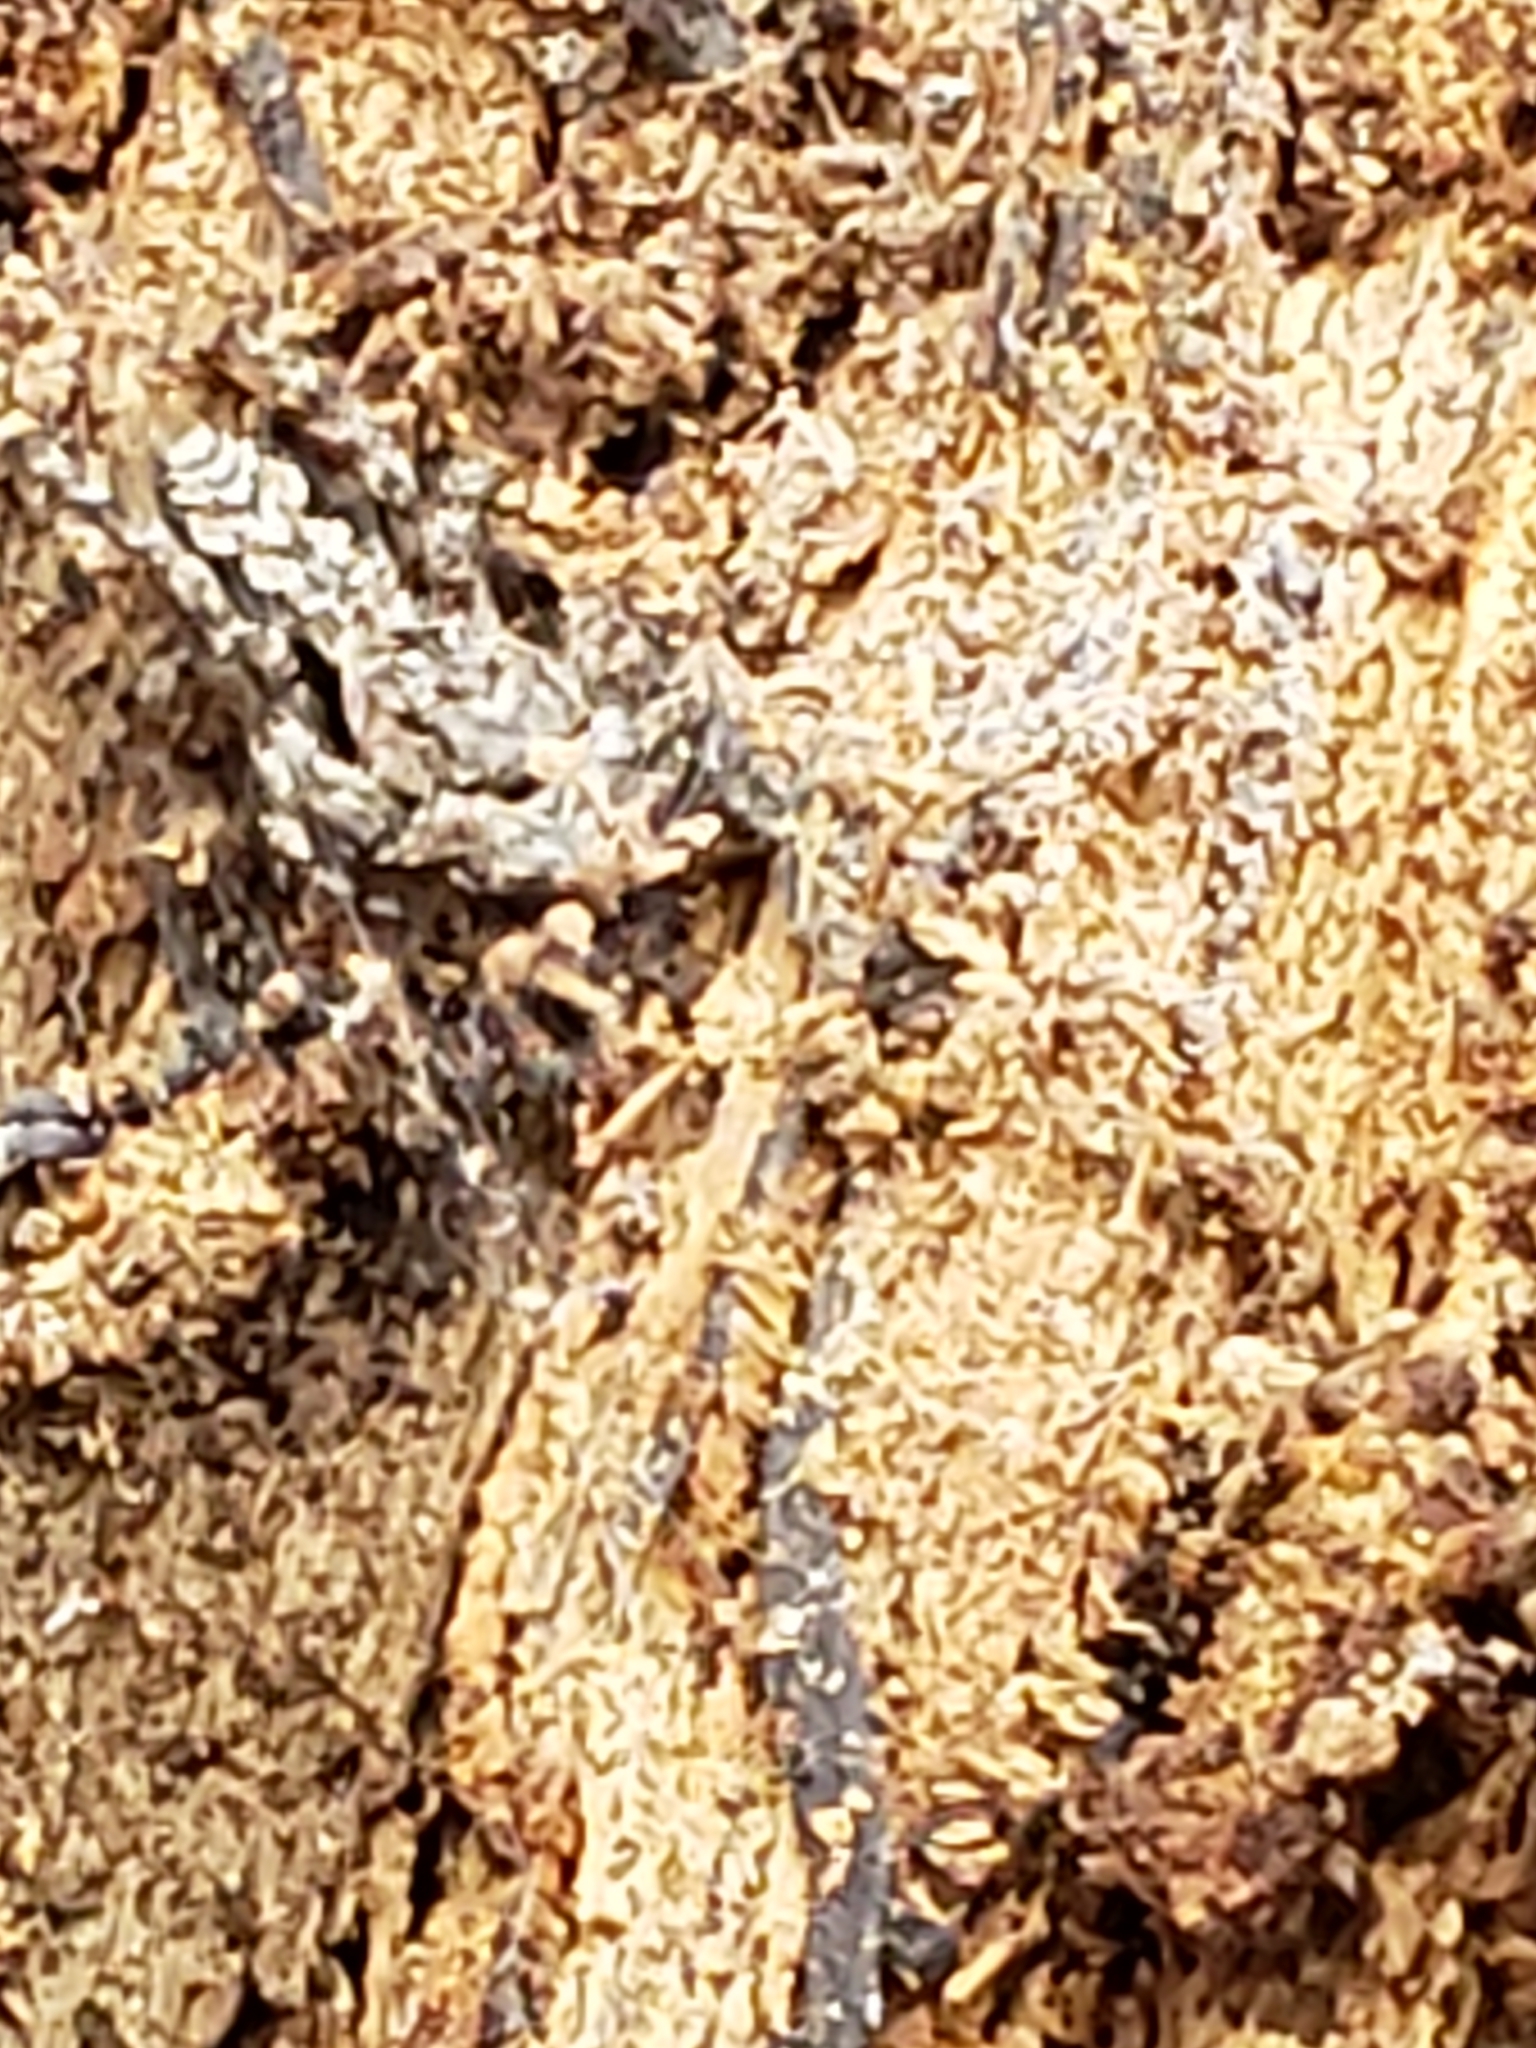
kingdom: Animalia
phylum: Arthropoda
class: Arachnida
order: Araneae
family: Salticidae
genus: Platycryptus
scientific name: Platycryptus undatus
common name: Tan jumping spider
